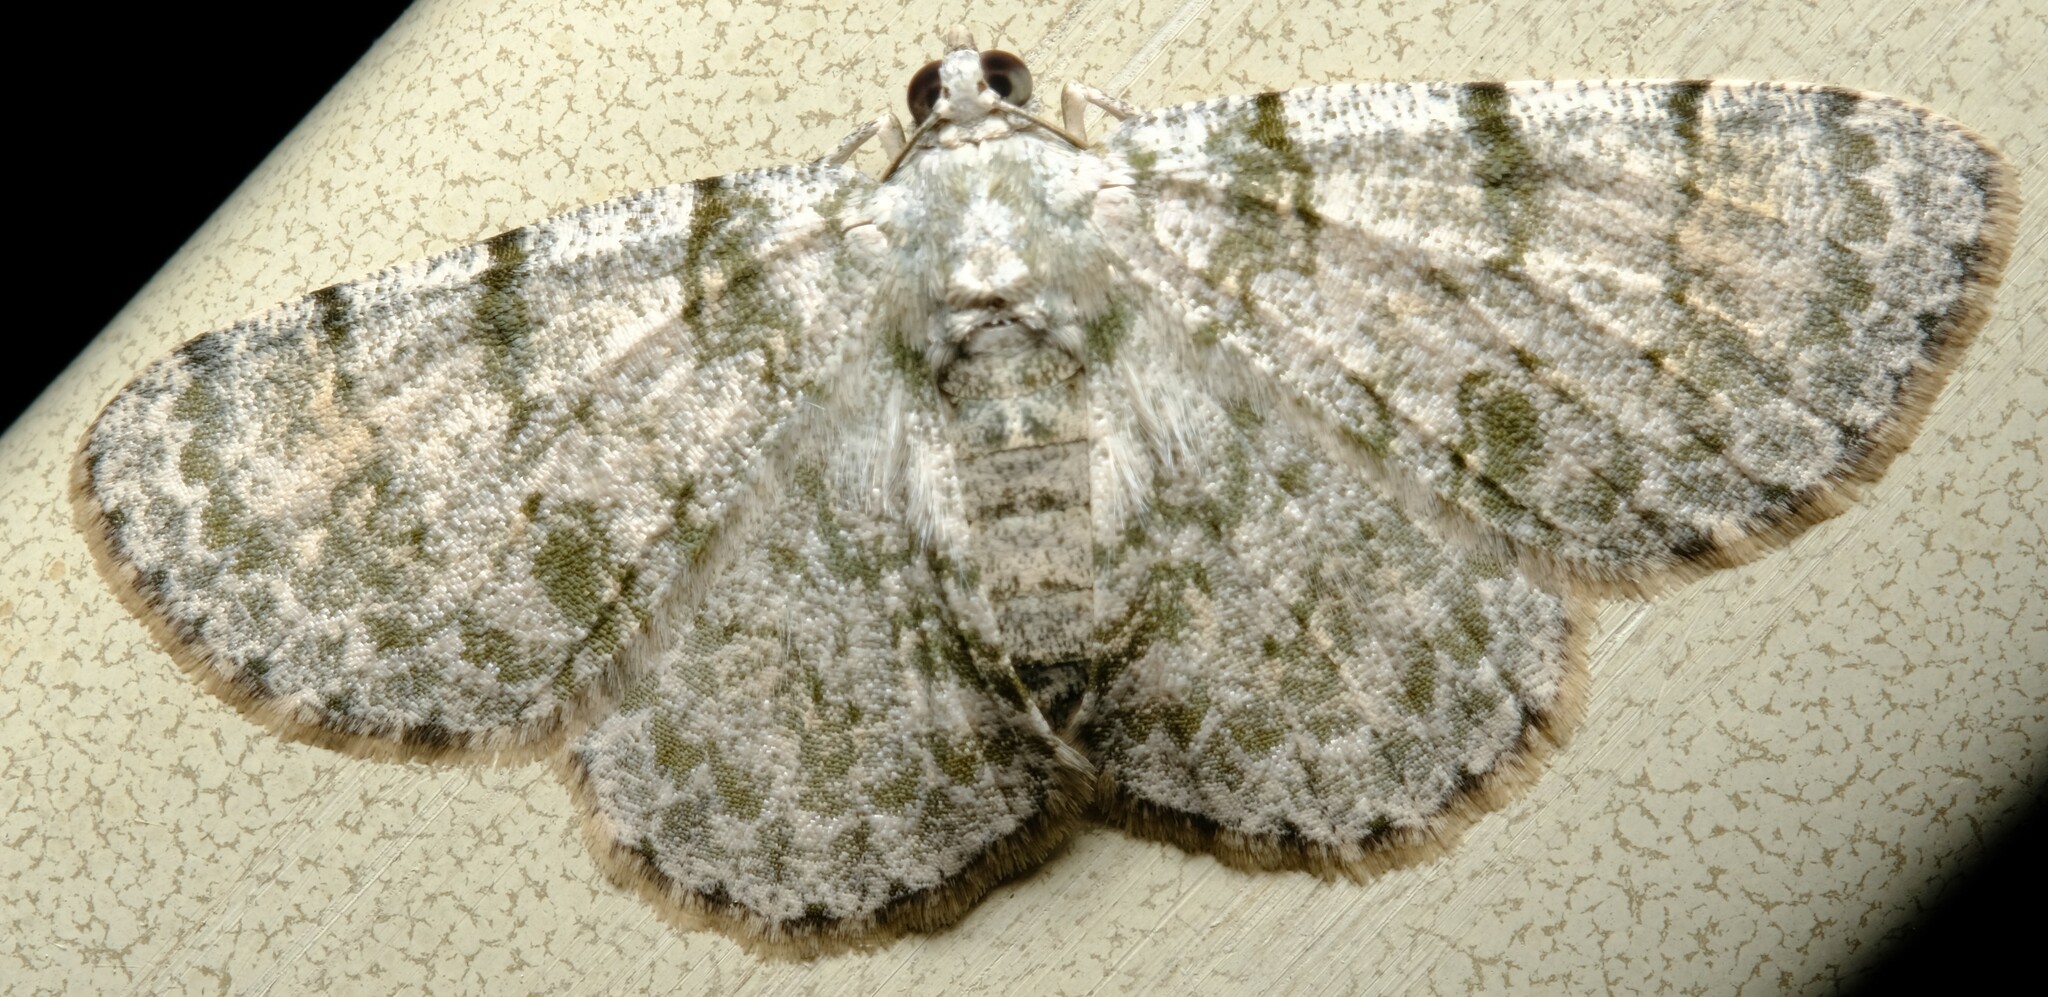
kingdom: Animalia
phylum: Arthropoda
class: Insecta
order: Lepidoptera
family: Geometridae
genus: Dyscheralcis
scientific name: Dyscheralcis crimnodes
